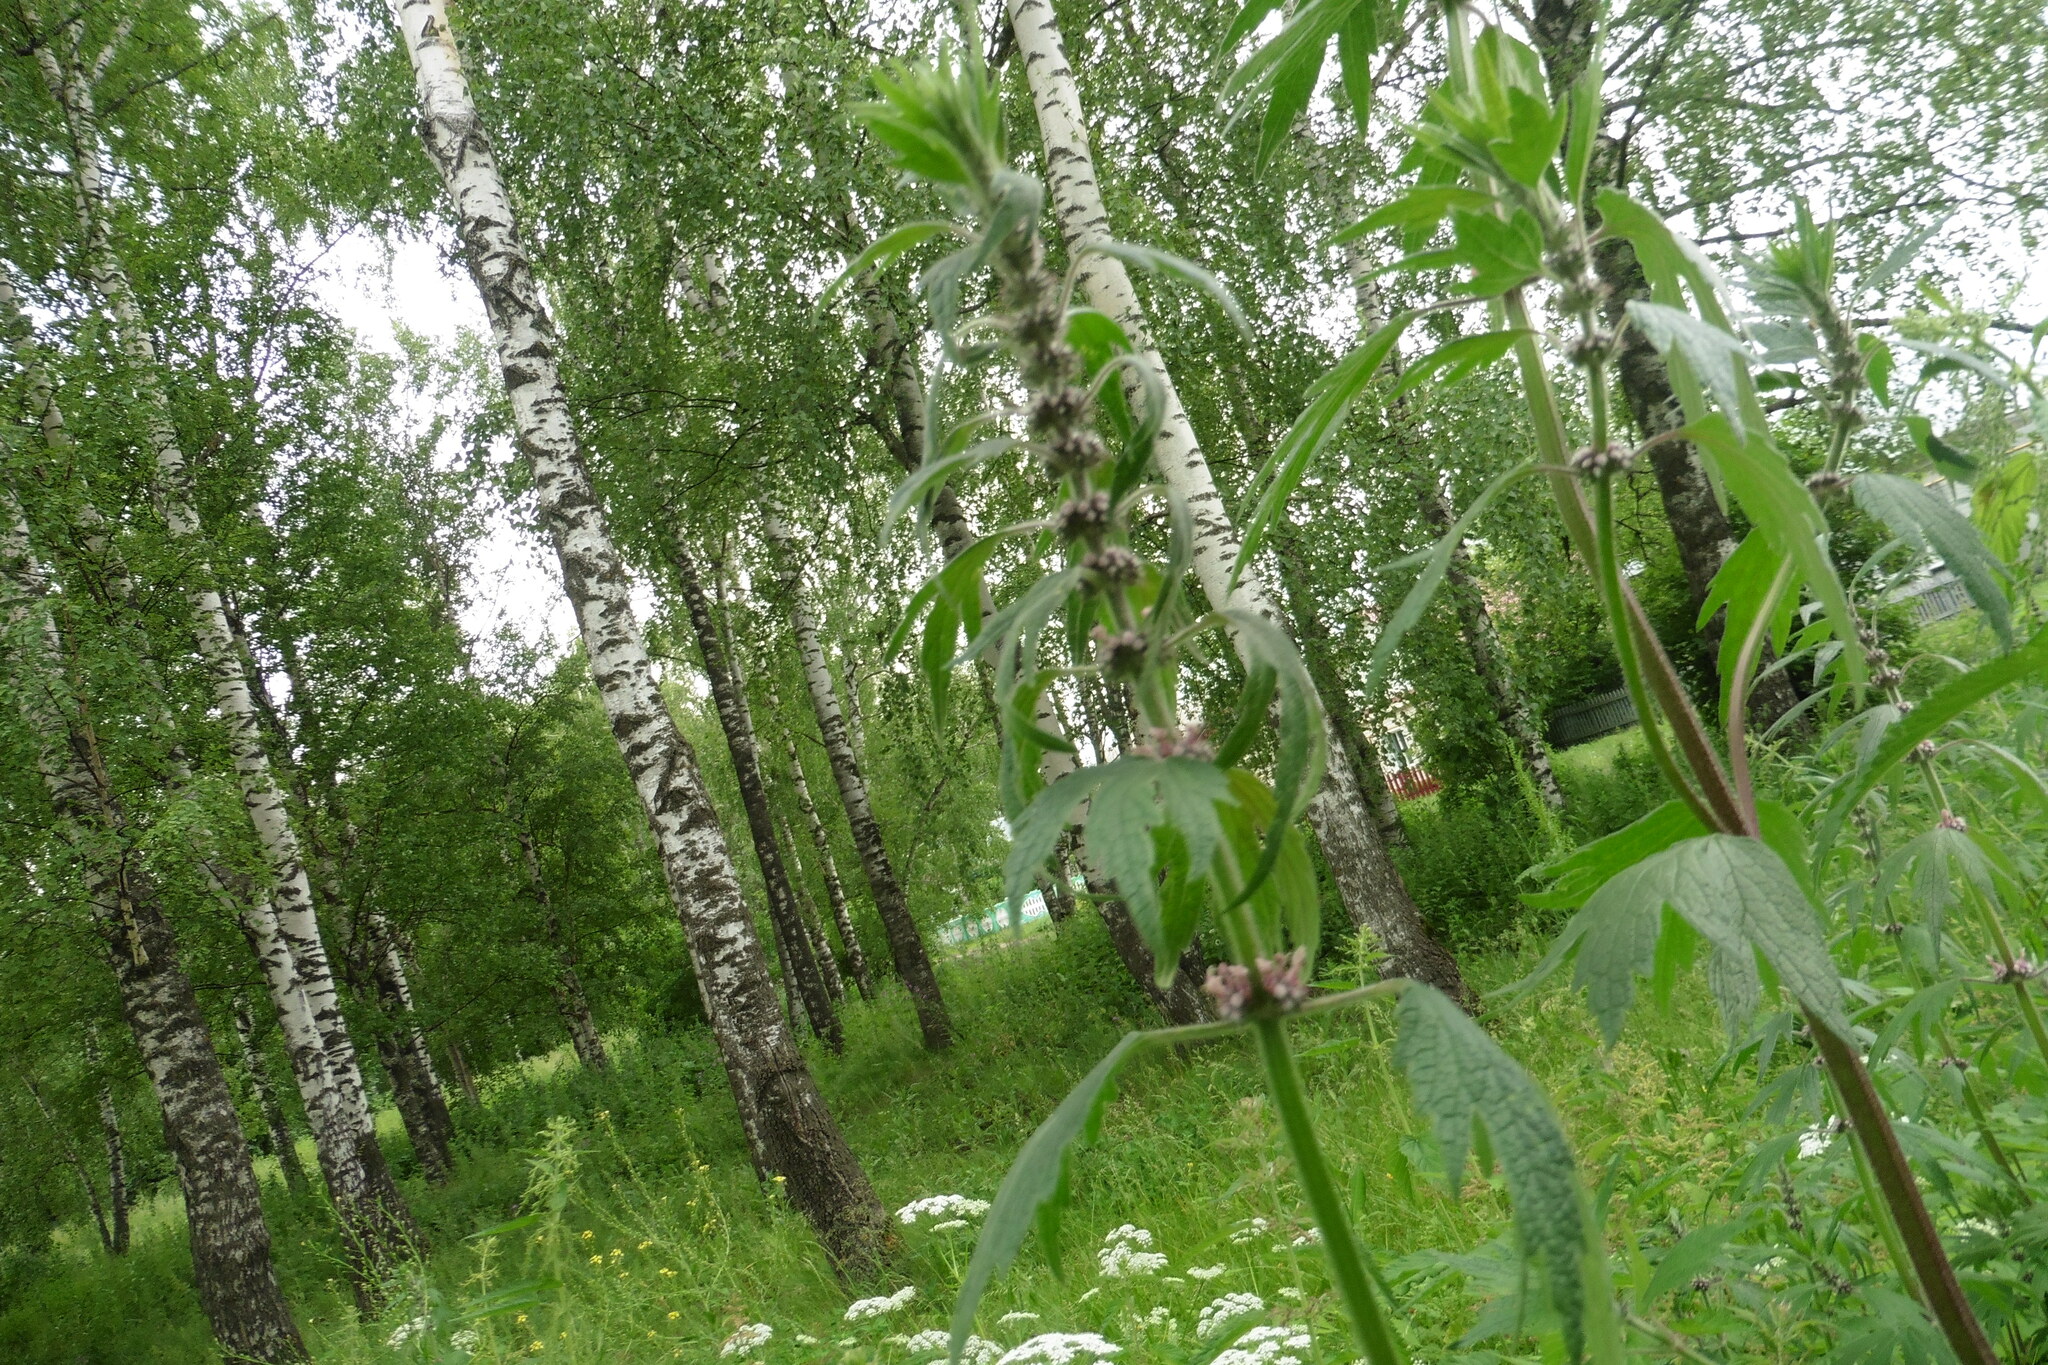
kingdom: Plantae
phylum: Tracheophyta
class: Magnoliopsida
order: Lamiales
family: Lamiaceae
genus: Leonurus
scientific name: Leonurus quinquelobatus
